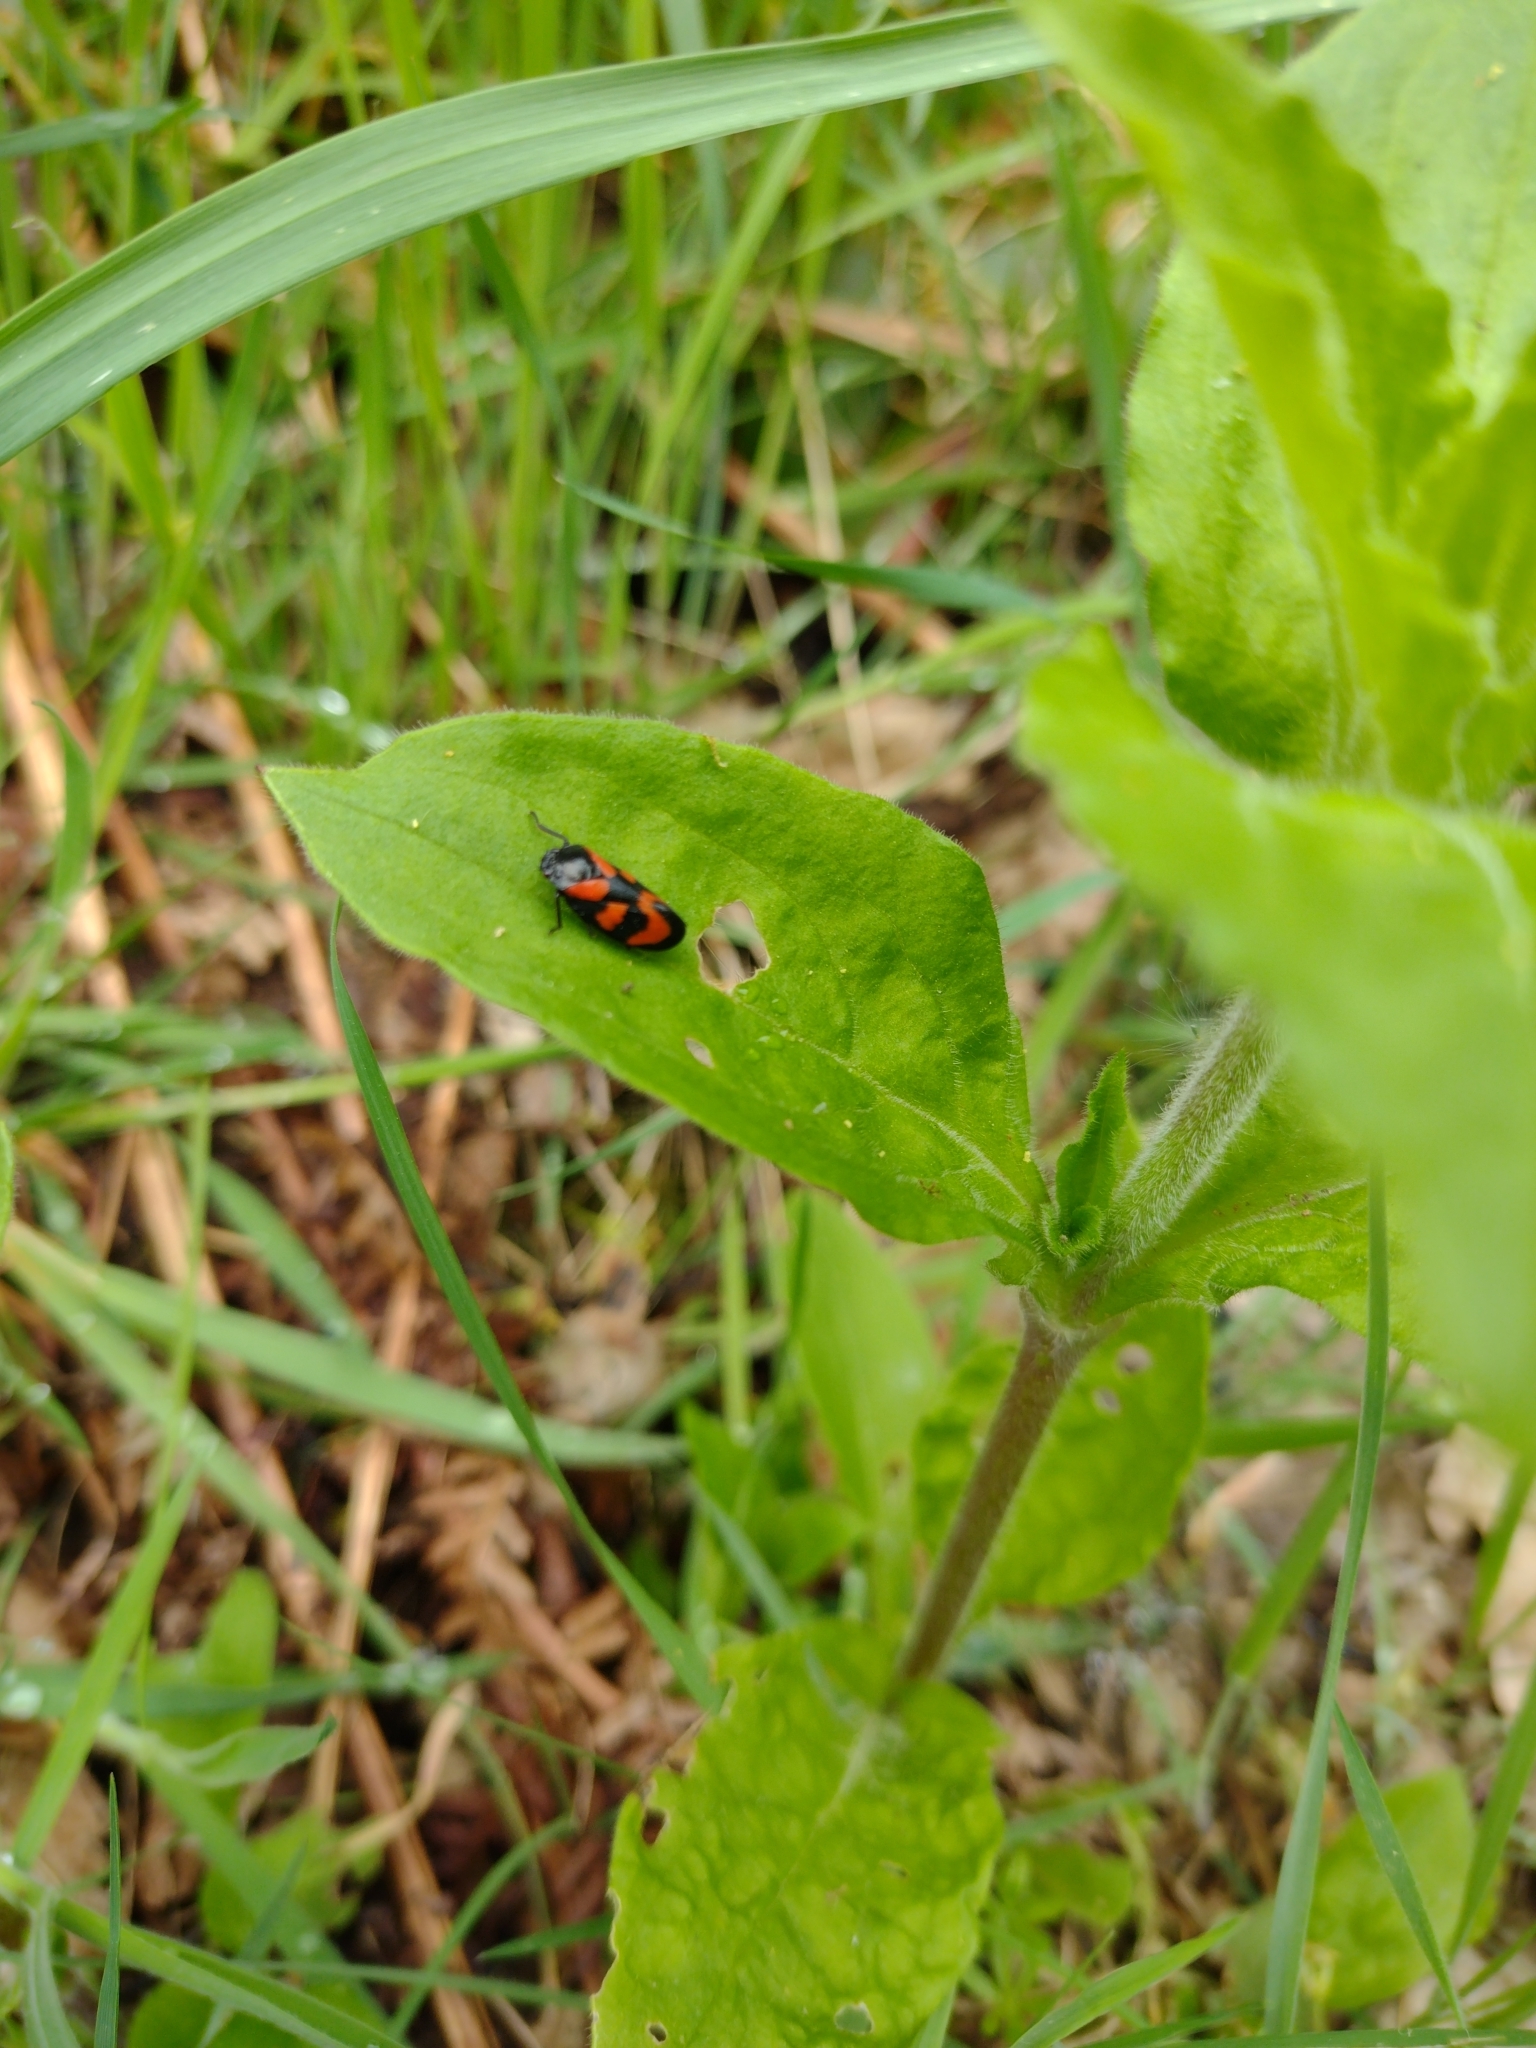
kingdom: Animalia
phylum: Arthropoda
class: Insecta
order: Hemiptera
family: Cercopidae
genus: Cercopis
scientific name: Cercopis vulnerata
